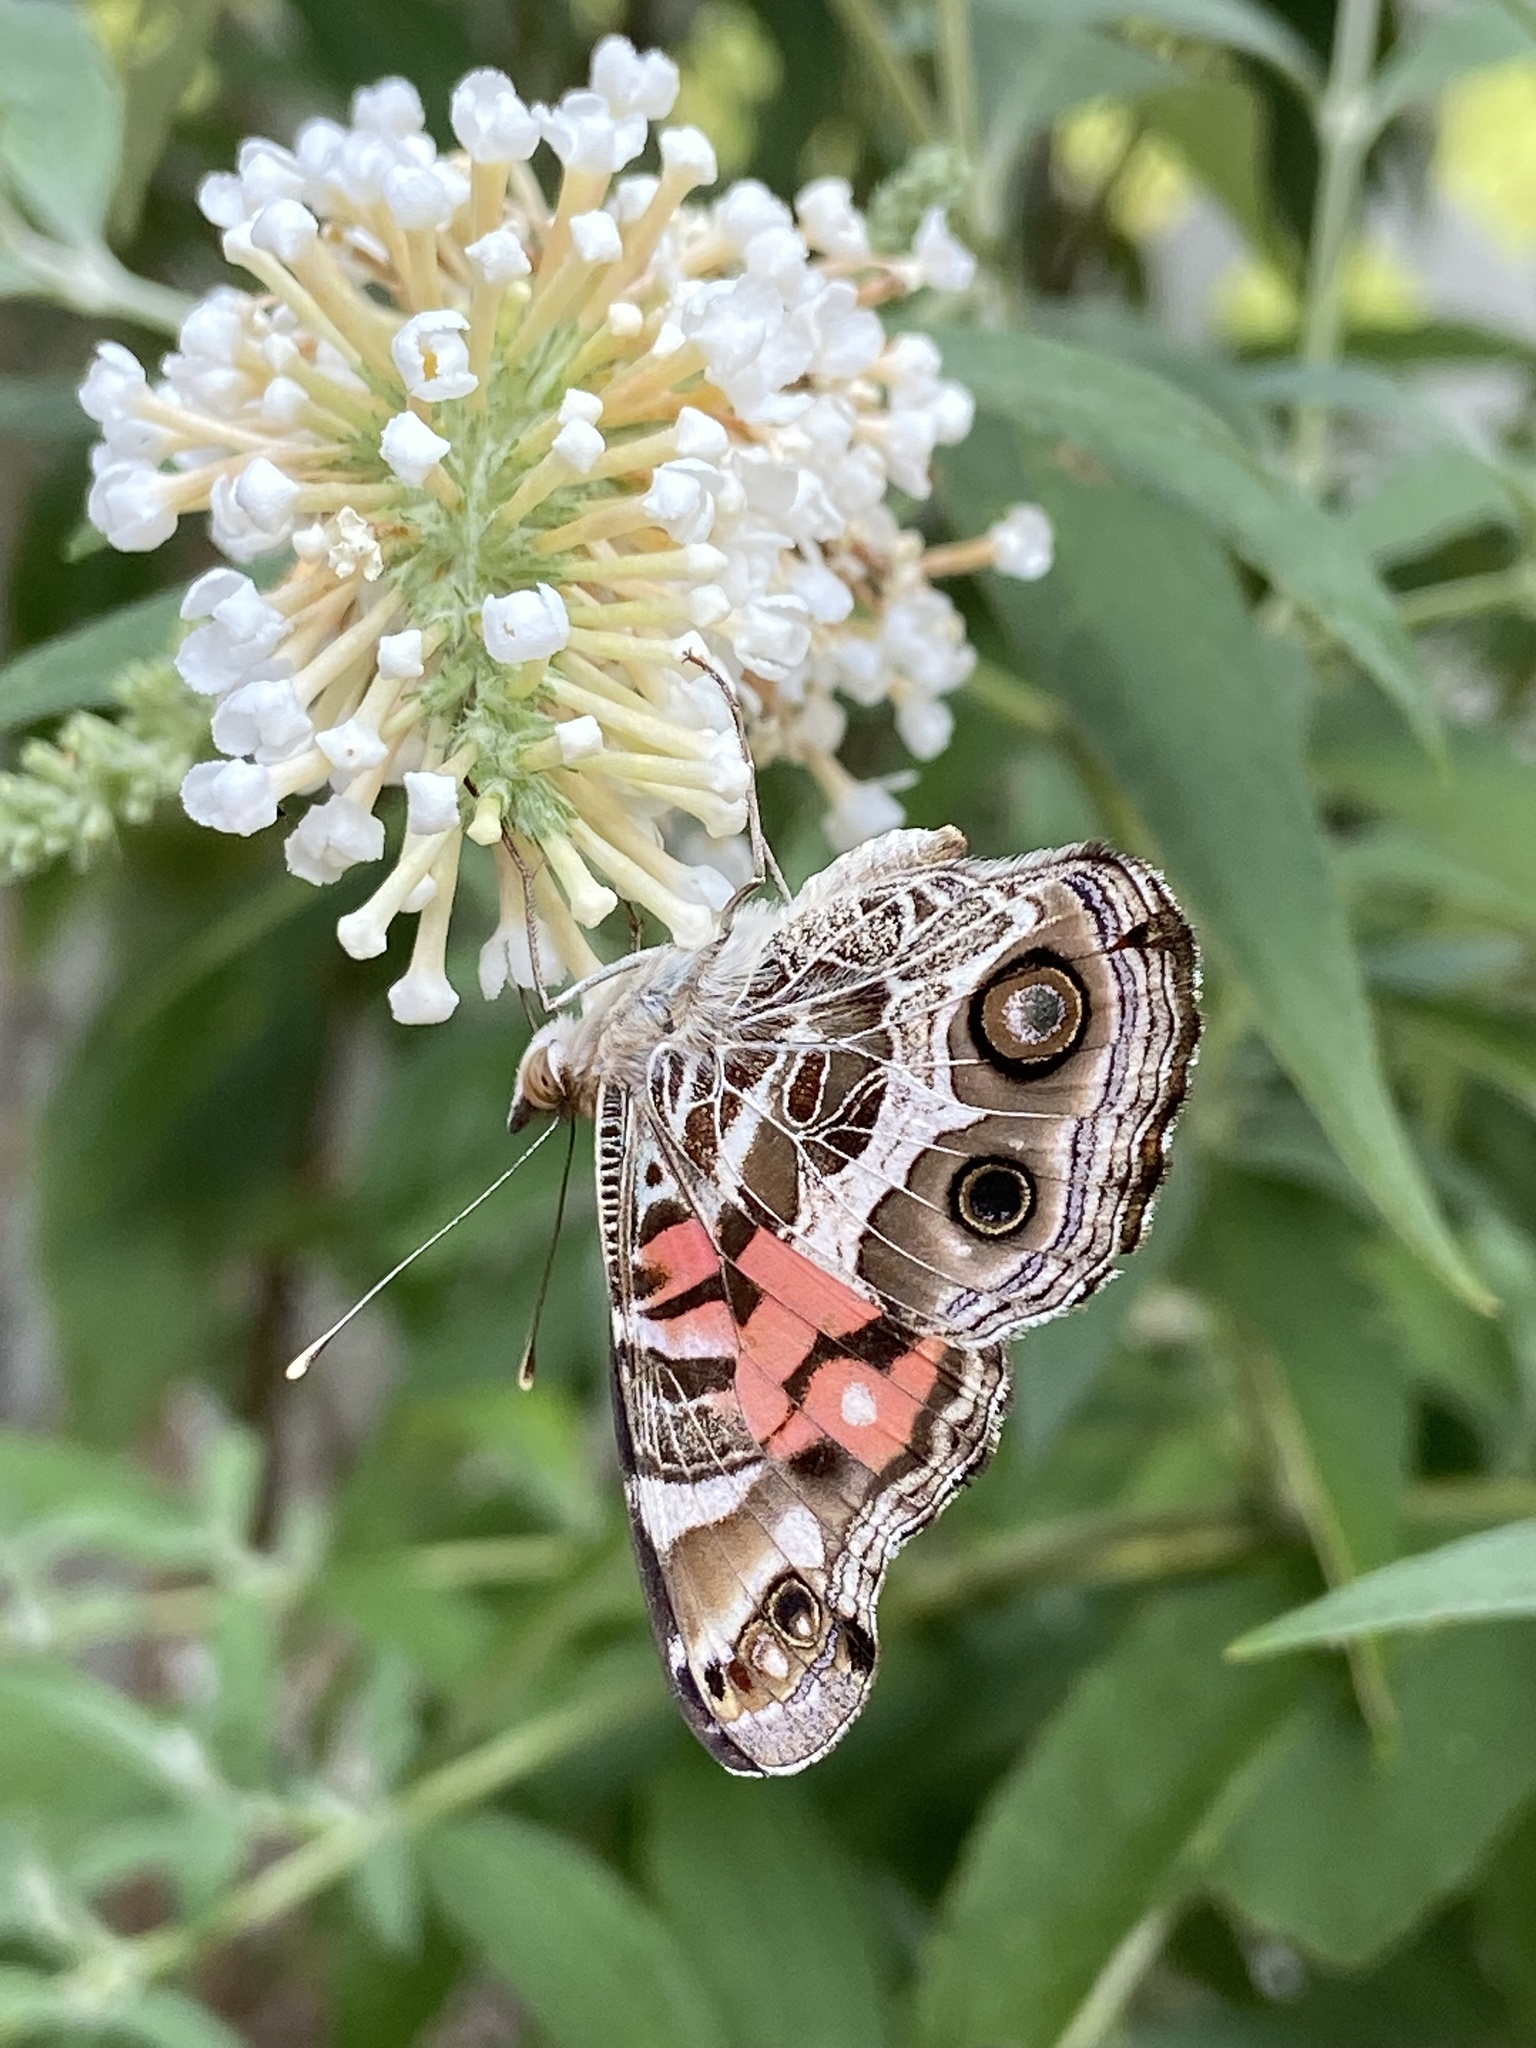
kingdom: Animalia
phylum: Arthropoda
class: Insecta
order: Lepidoptera
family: Nymphalidae
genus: Vanessa
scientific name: Vanessa virginiensis
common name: American lady
